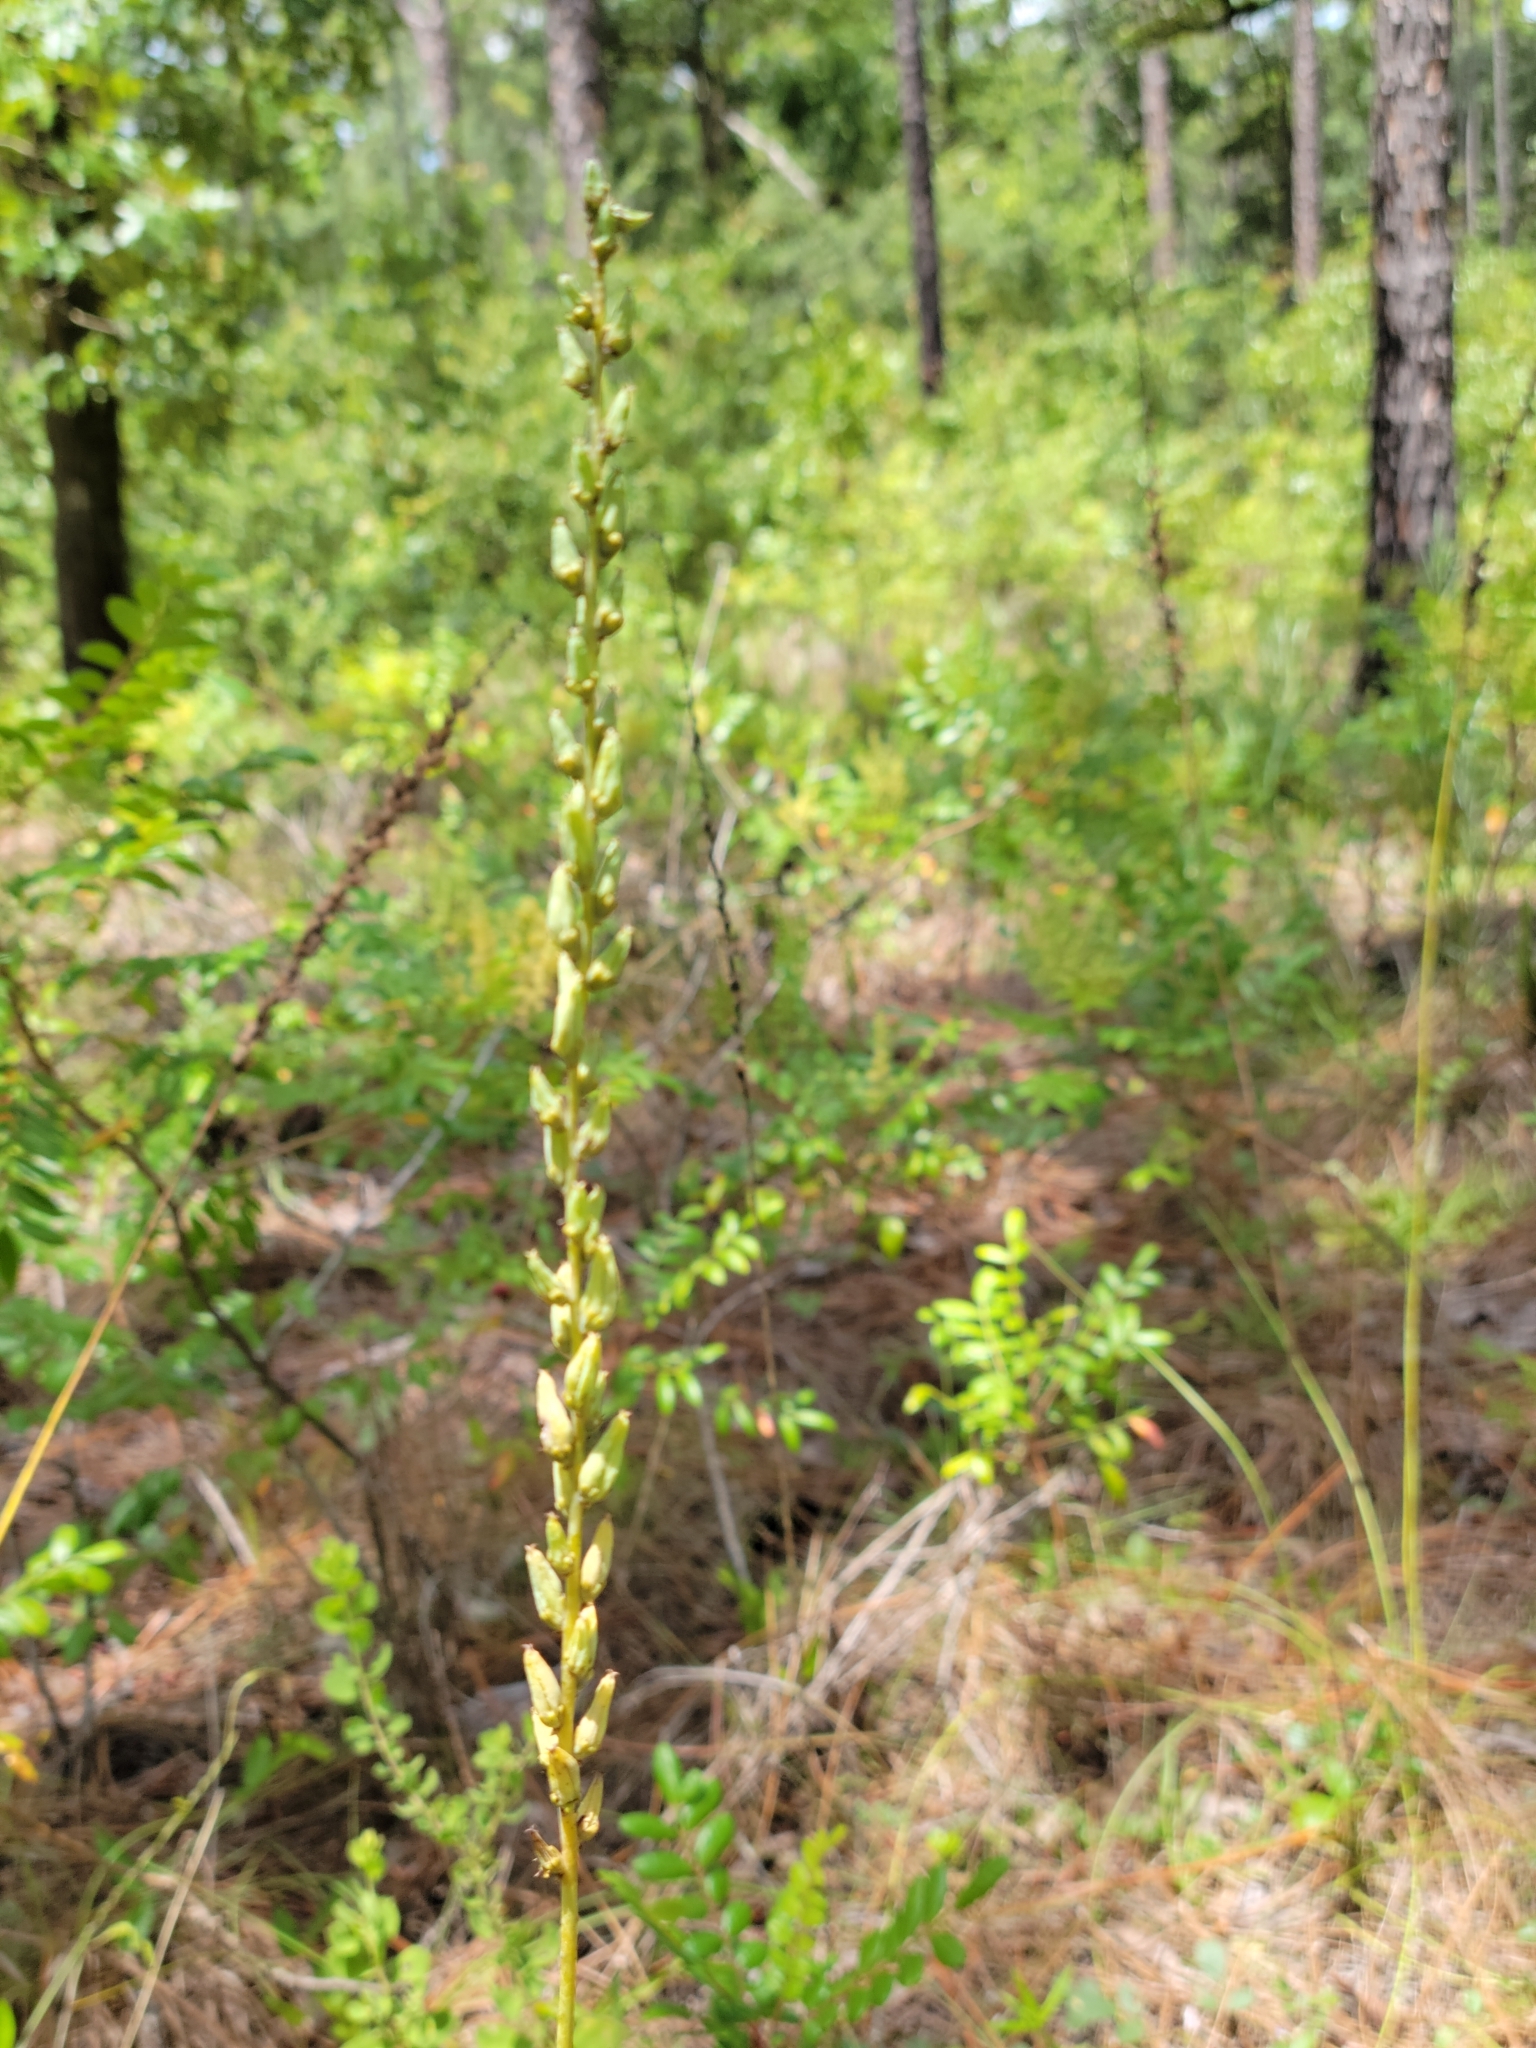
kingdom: Plantae
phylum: Tracheophyta
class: Liliopsida
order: Liliales
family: Melanthiaceae
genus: Schoenocaulon
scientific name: Schoenocaulon dubium
